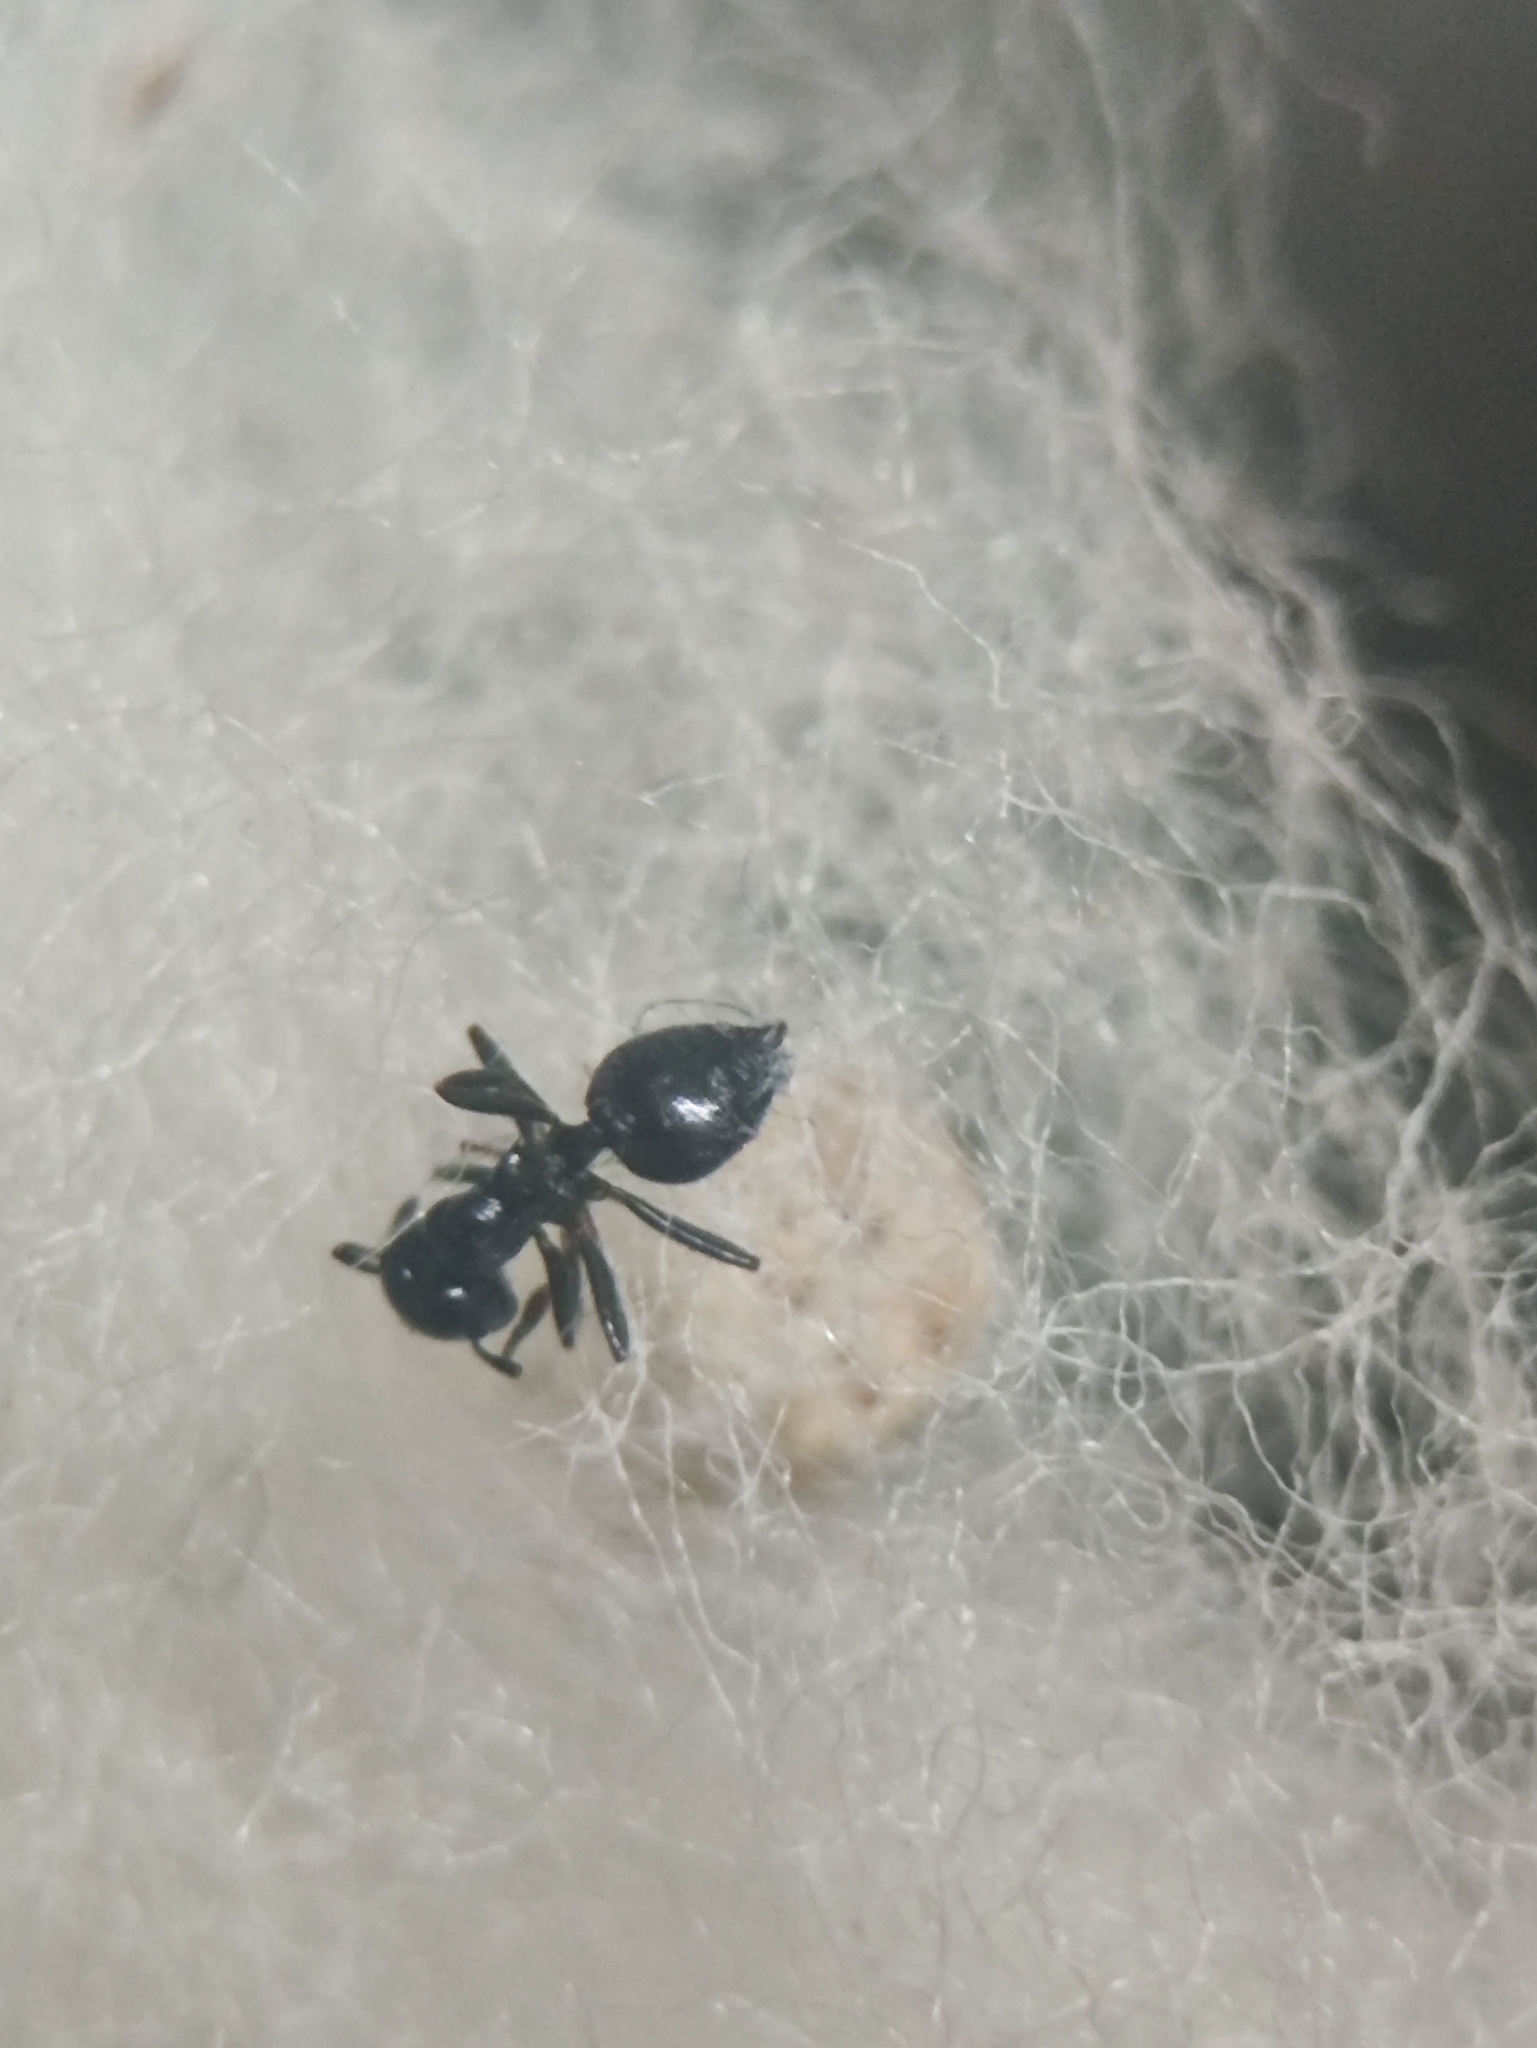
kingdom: Animalia
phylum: Arthropoda
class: Insecta
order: Hymenoptera
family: Formicidae
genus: Crematogaster
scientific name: Crematogaster ebenina
